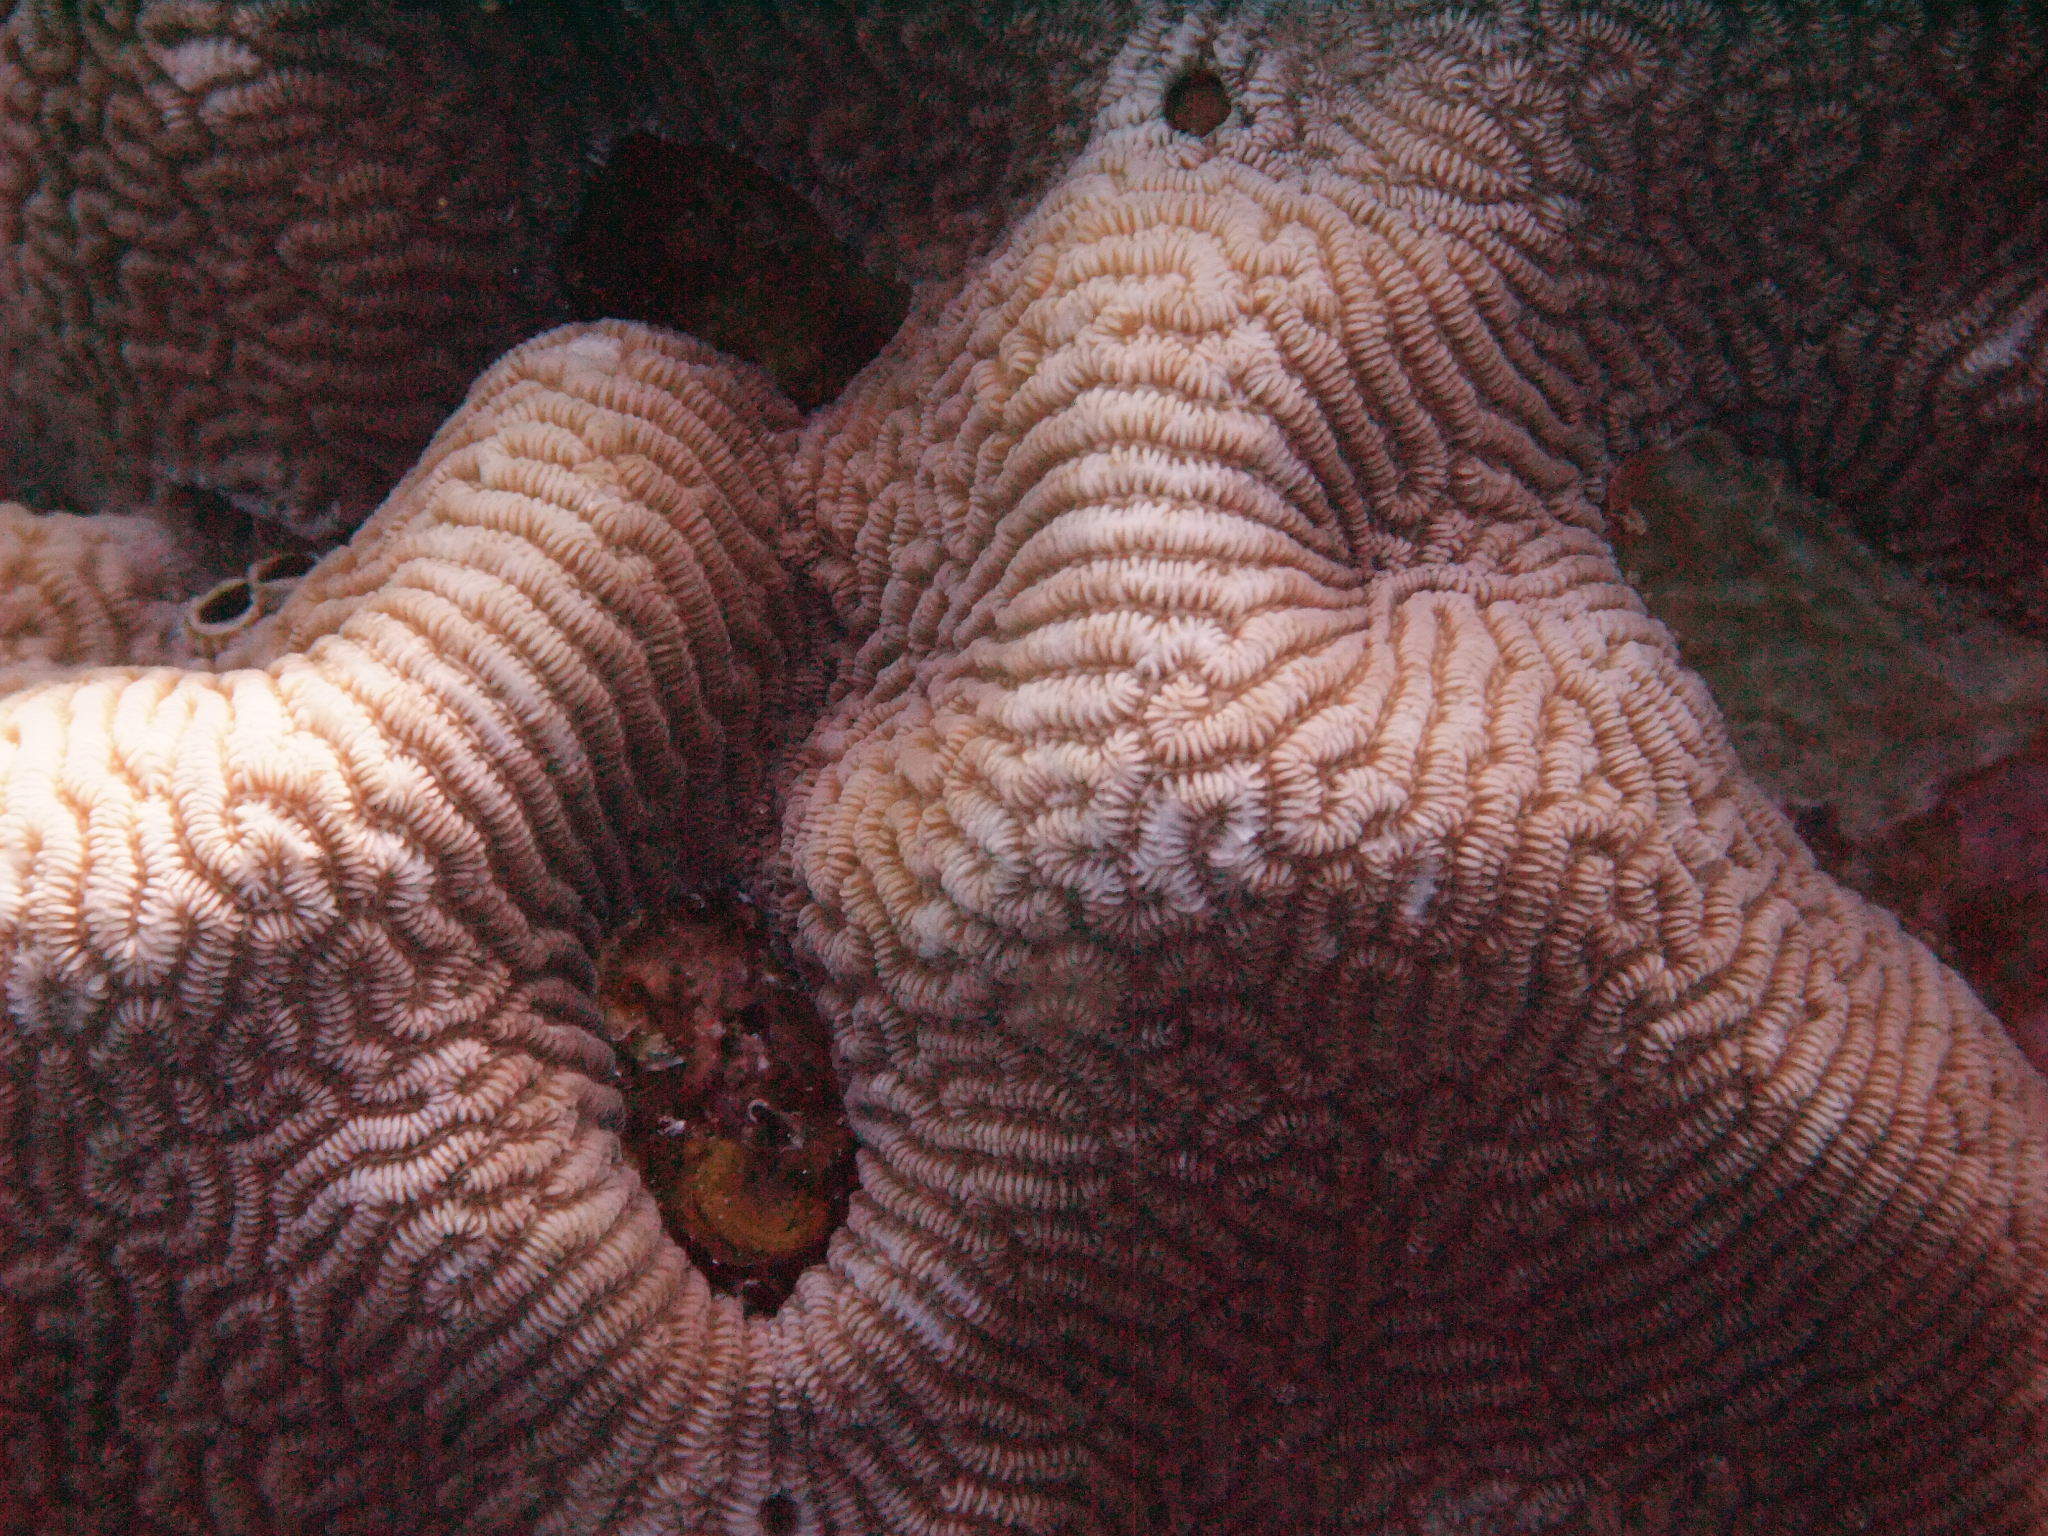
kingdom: Animalia
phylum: Cnidaria
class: Anthozoa
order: Scleractinia
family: Merulinidae
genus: Leptoria
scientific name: Leptoria phrygia
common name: Least valley coral
